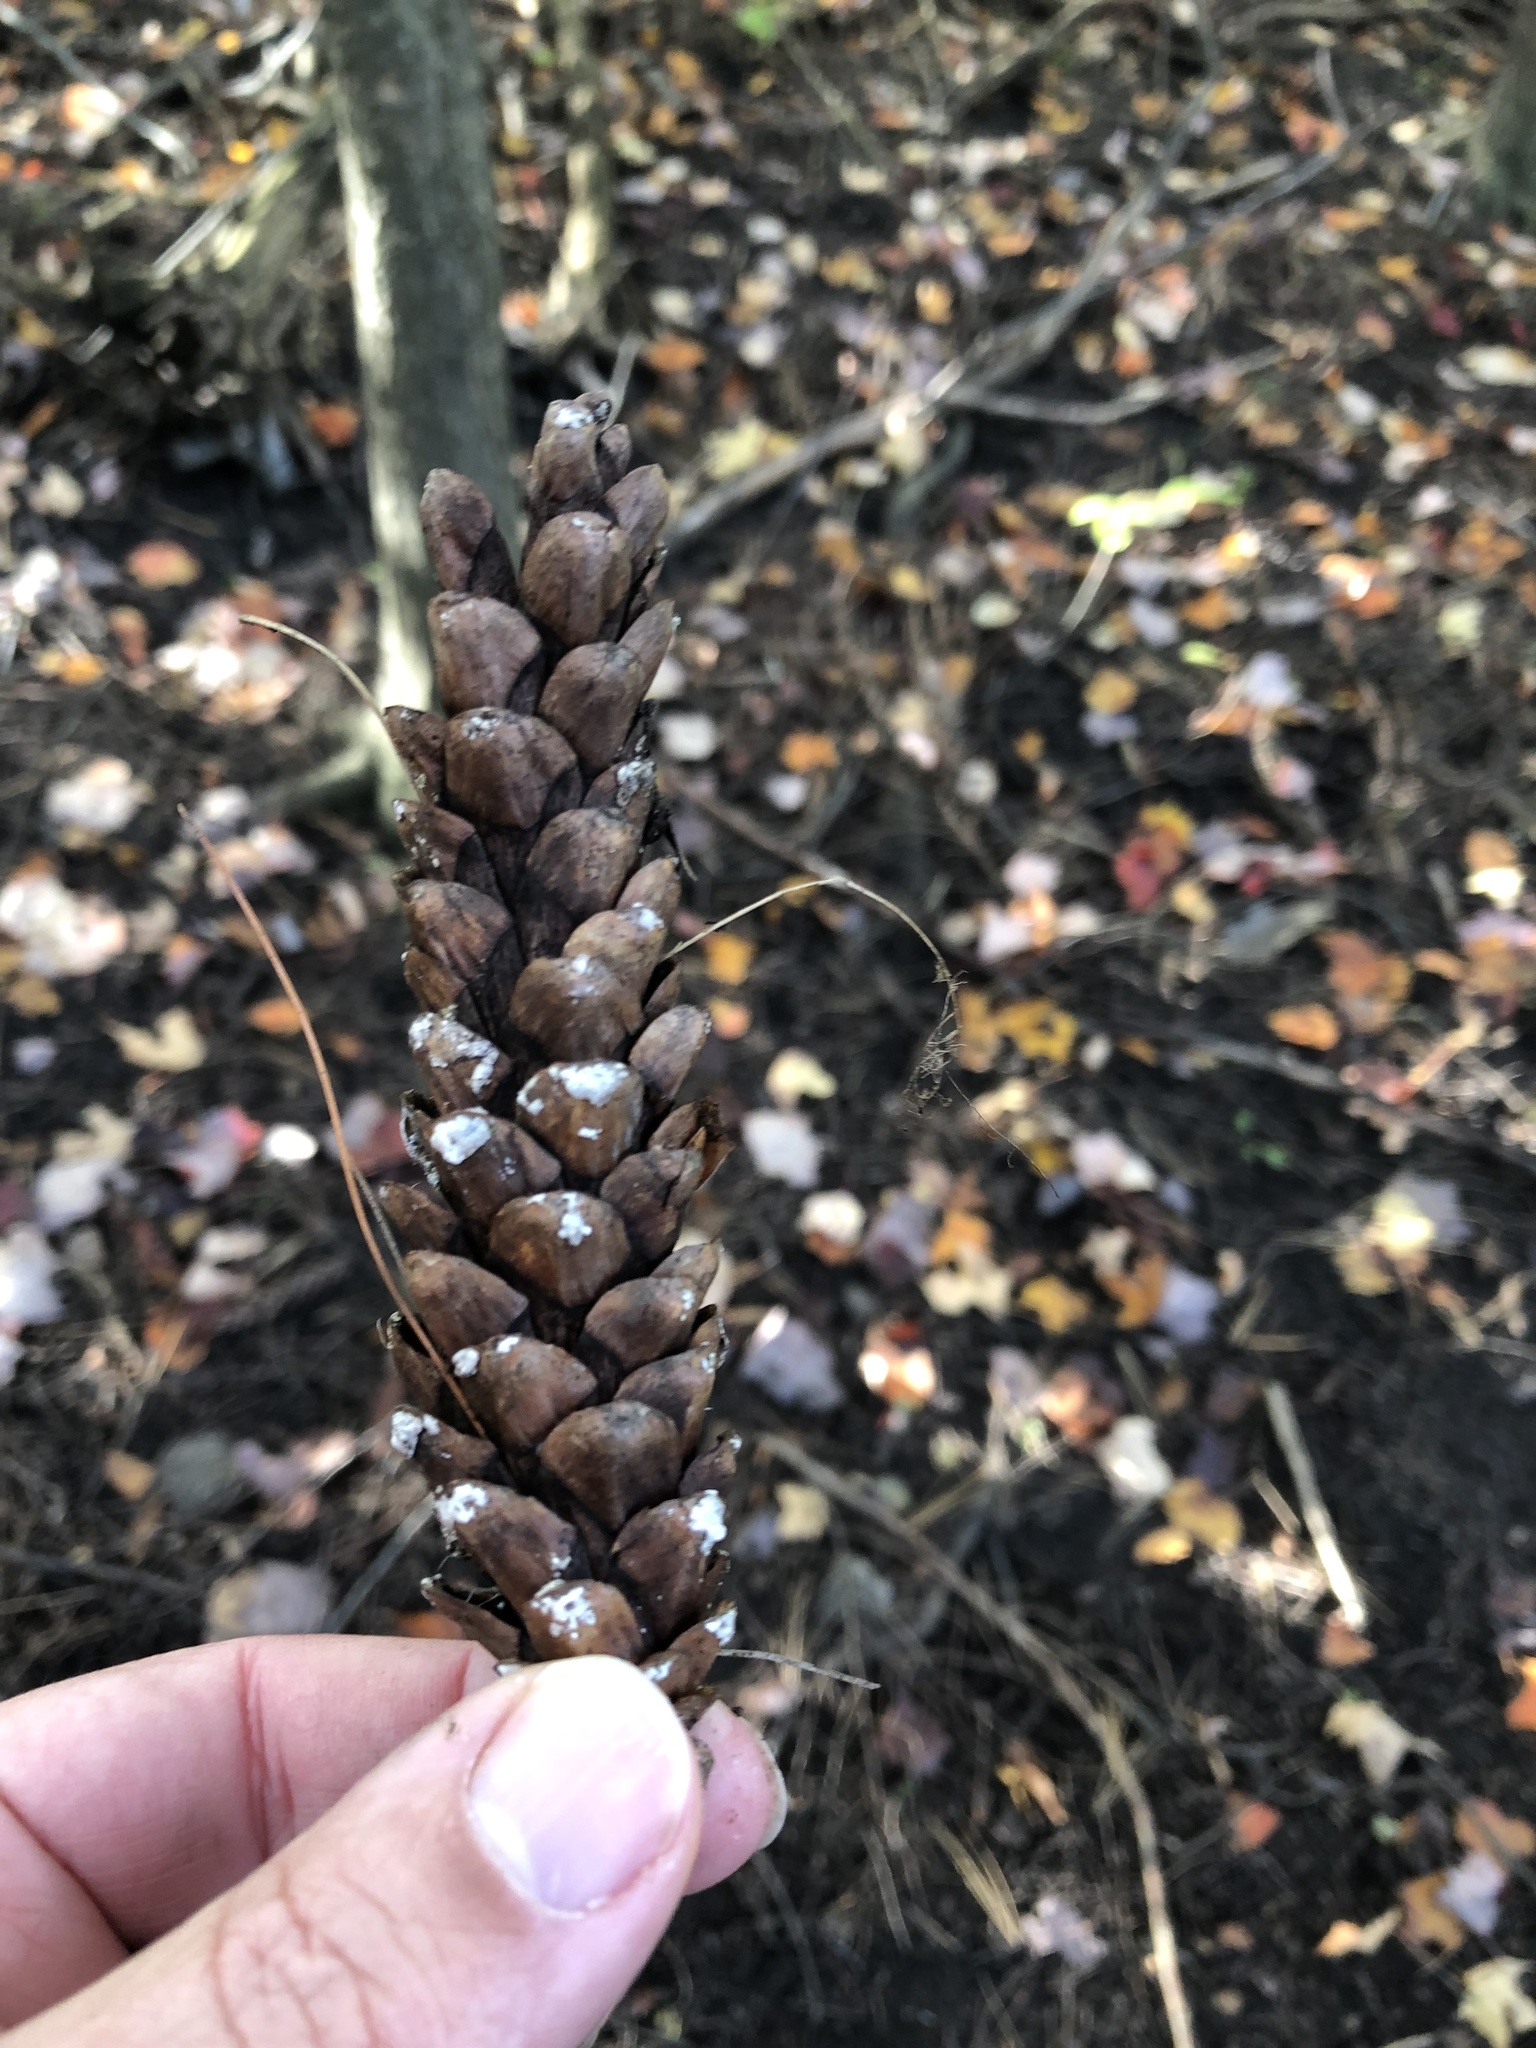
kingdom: Plantae
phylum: Tracheophyta
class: Pinopsida
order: Pinales
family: Pinaceae
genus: Pinus
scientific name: Pinus strobus
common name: Weymouth pine
